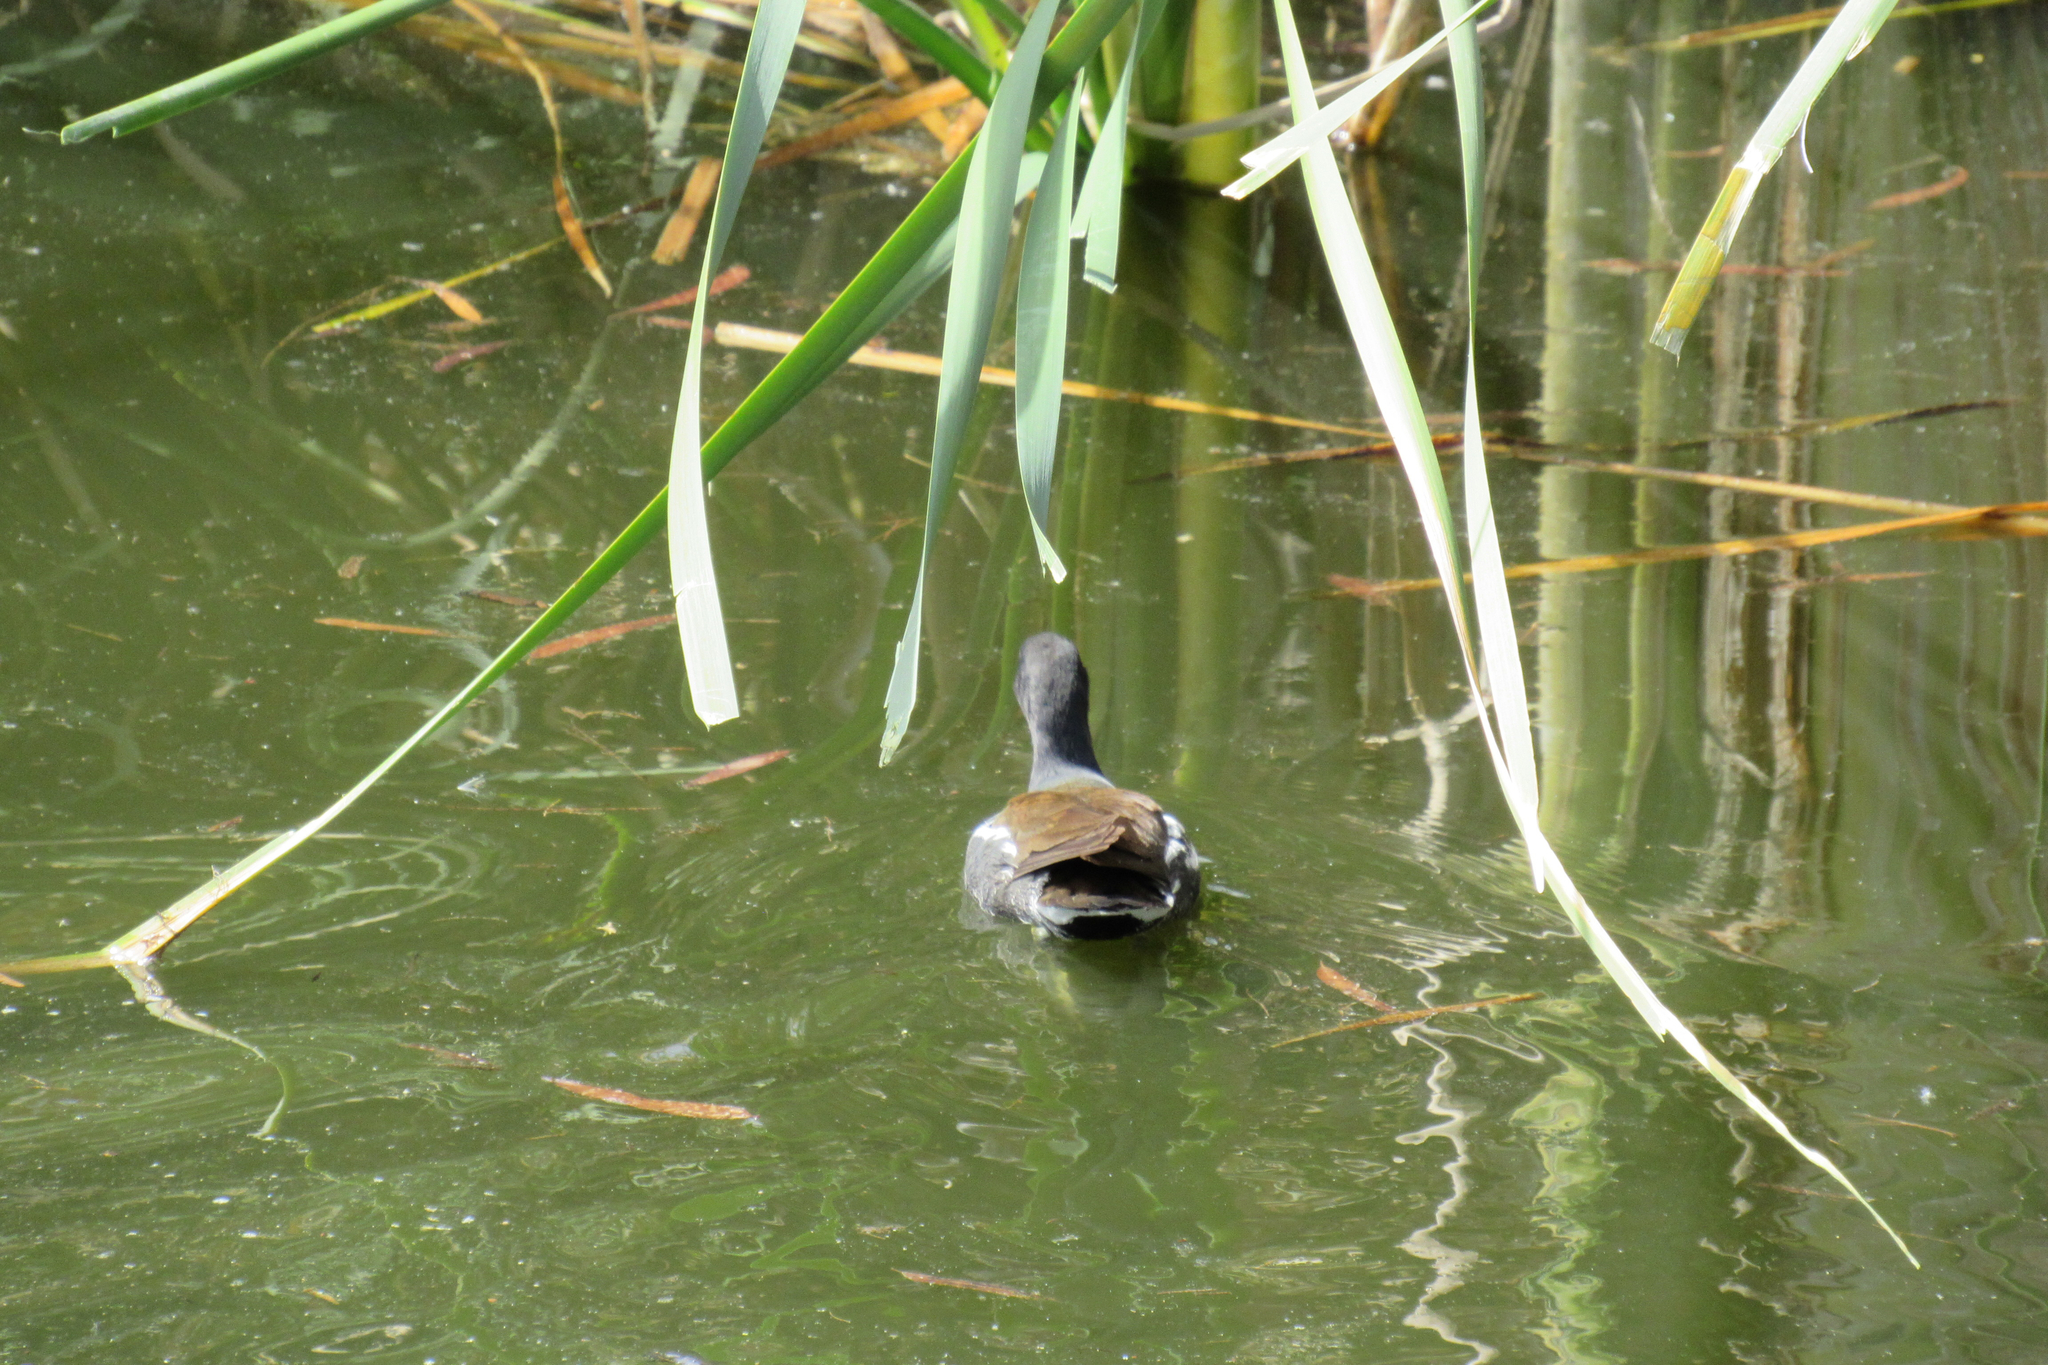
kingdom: Animalia
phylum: Chordata
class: Aves
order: Gruiformes
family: Rallidae
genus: Gallinula
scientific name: Gallinula chloropus
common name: Common moorhen
